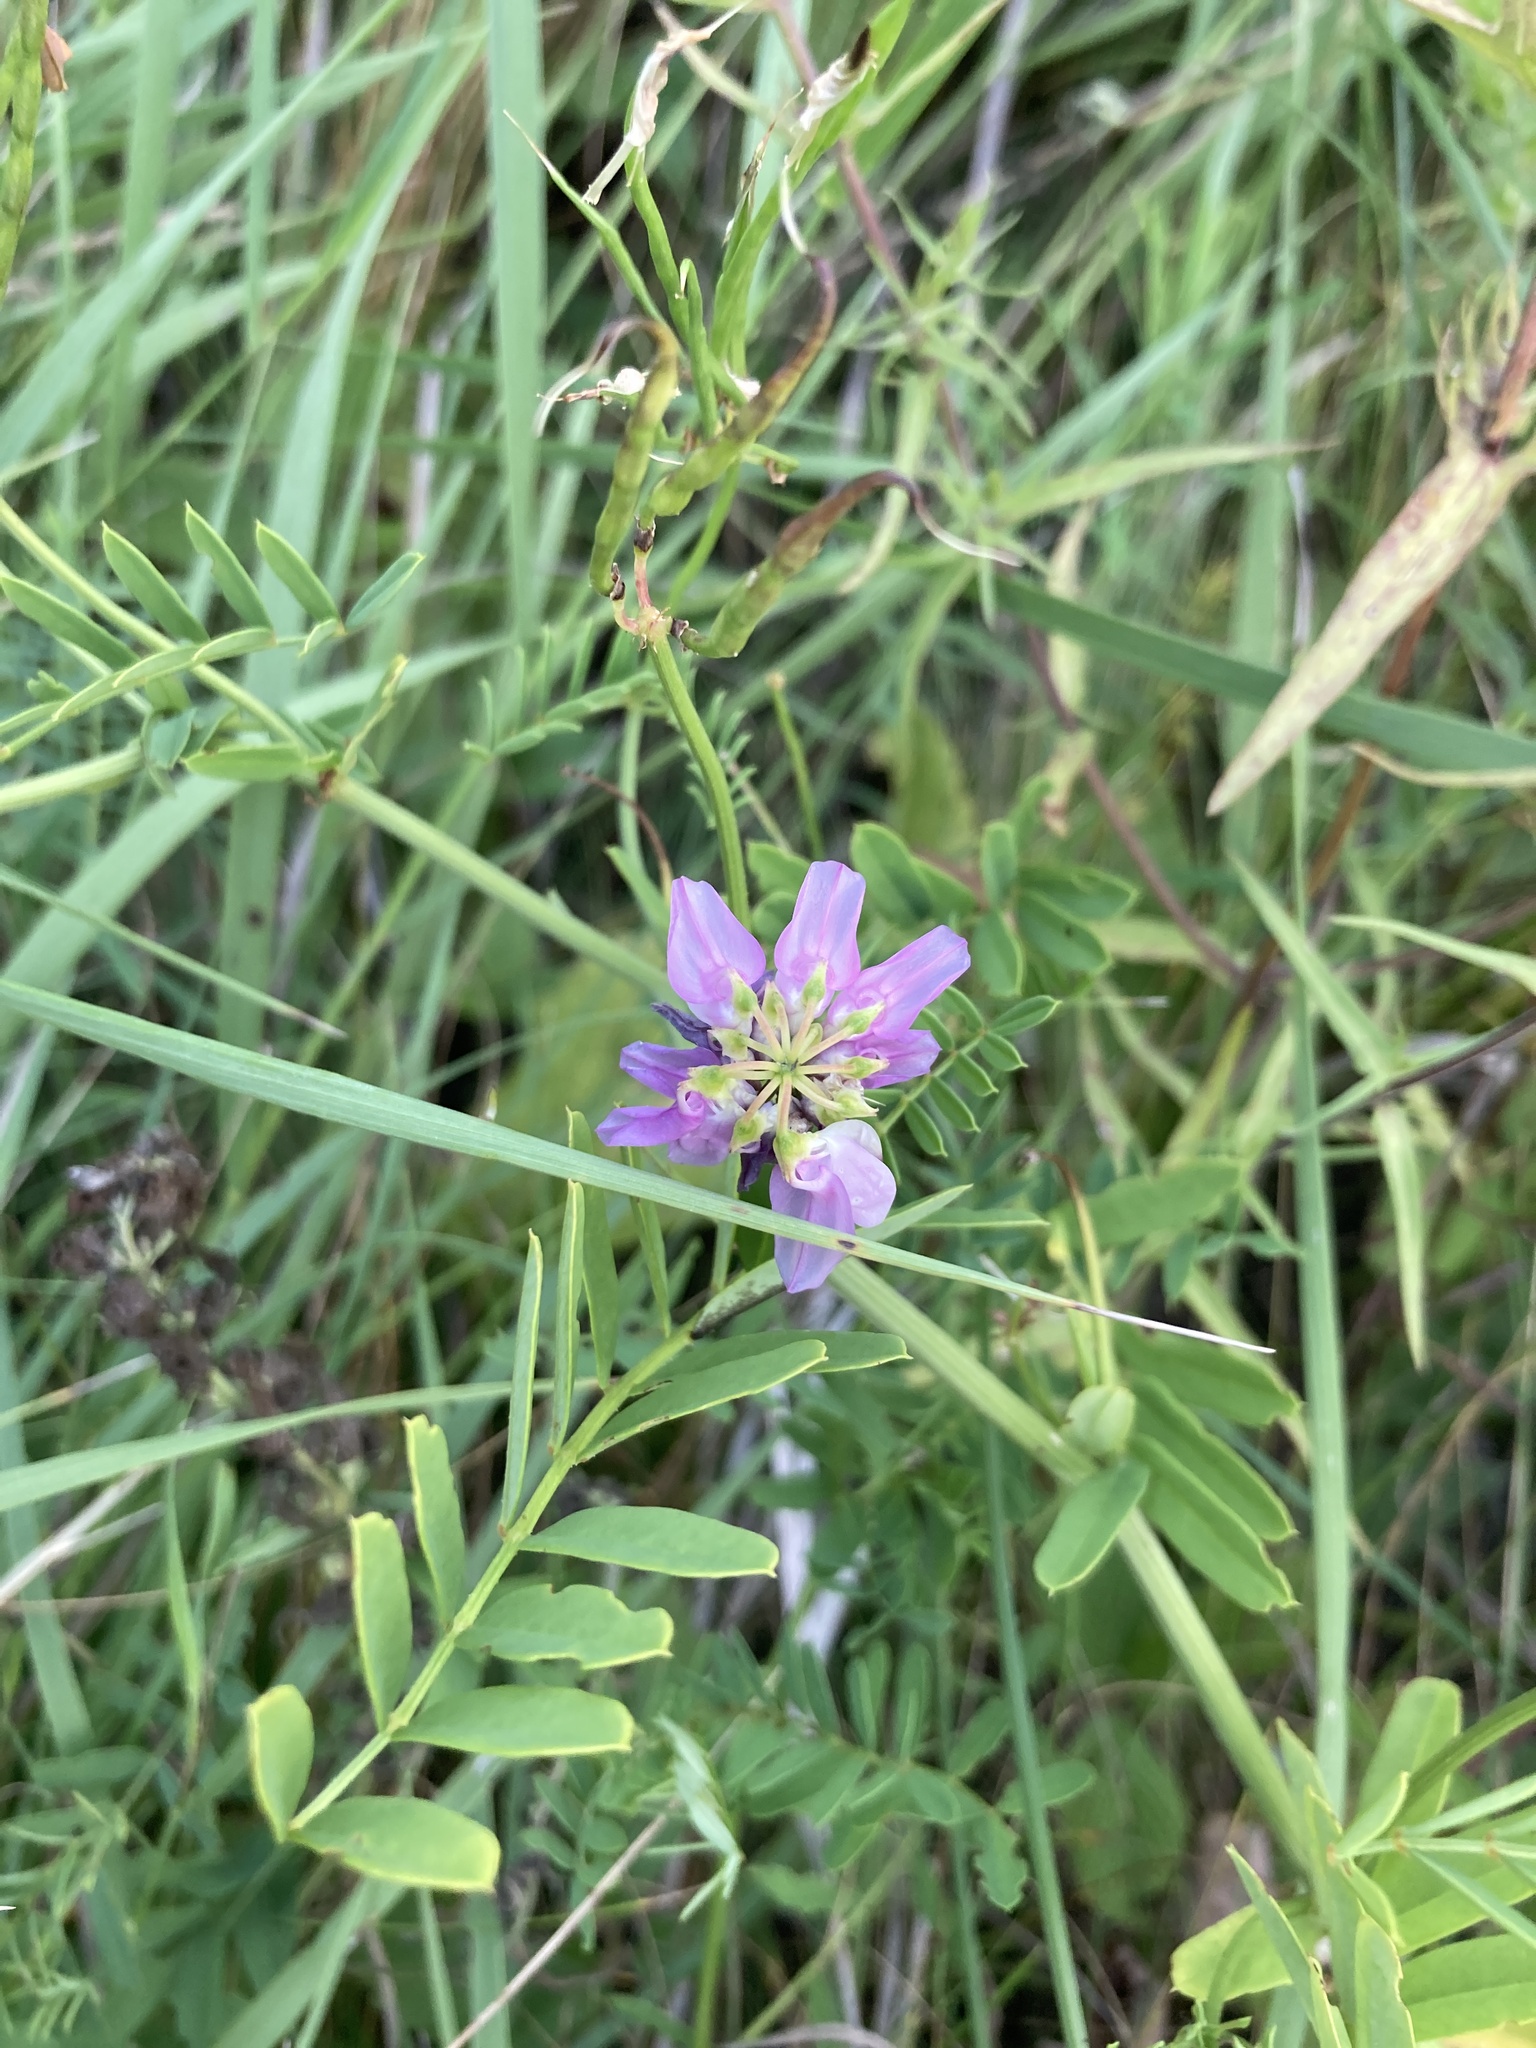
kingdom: Plantae
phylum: Tracheophyta
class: Magnoliopsida
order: Fabales
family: Fabaceae
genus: Coronilla
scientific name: Coronilla varia
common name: Crownvetch
